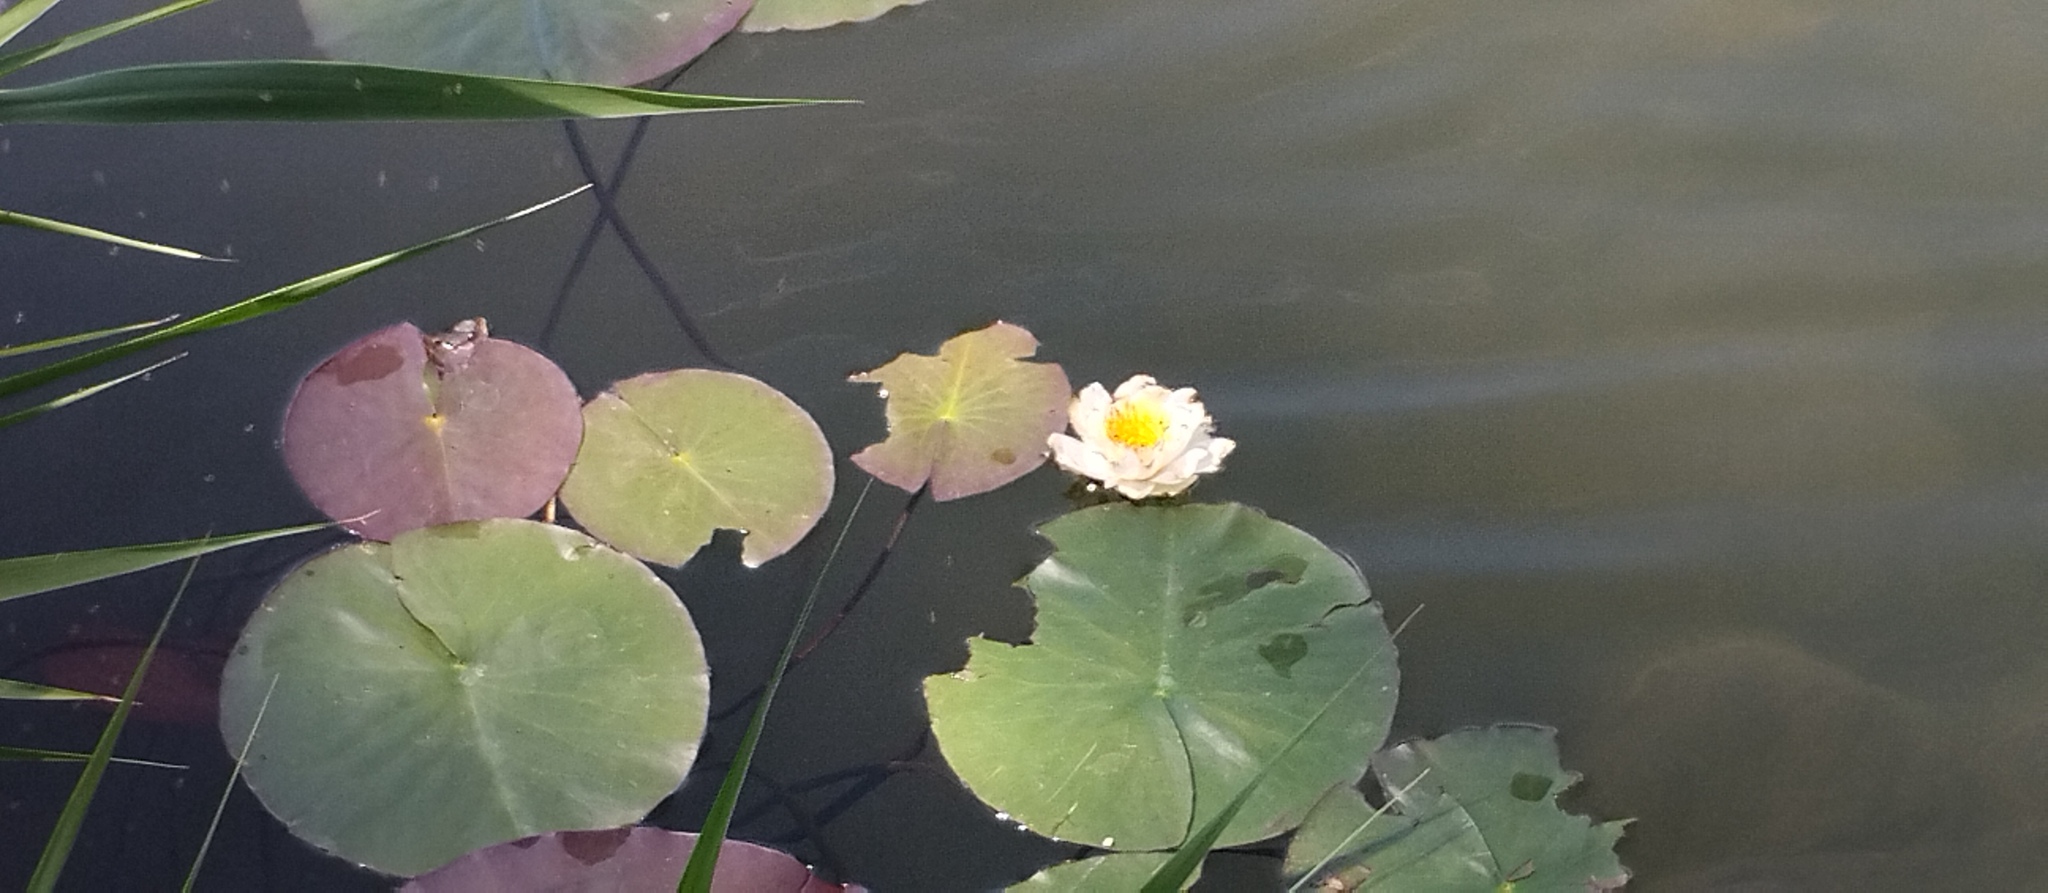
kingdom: Plantae
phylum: Tracheophyta
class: Magnoliopsida
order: Nymphaeales
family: Nymphaeaceae
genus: Nymphaea
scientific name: Nymphaea alba
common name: White water-lily
